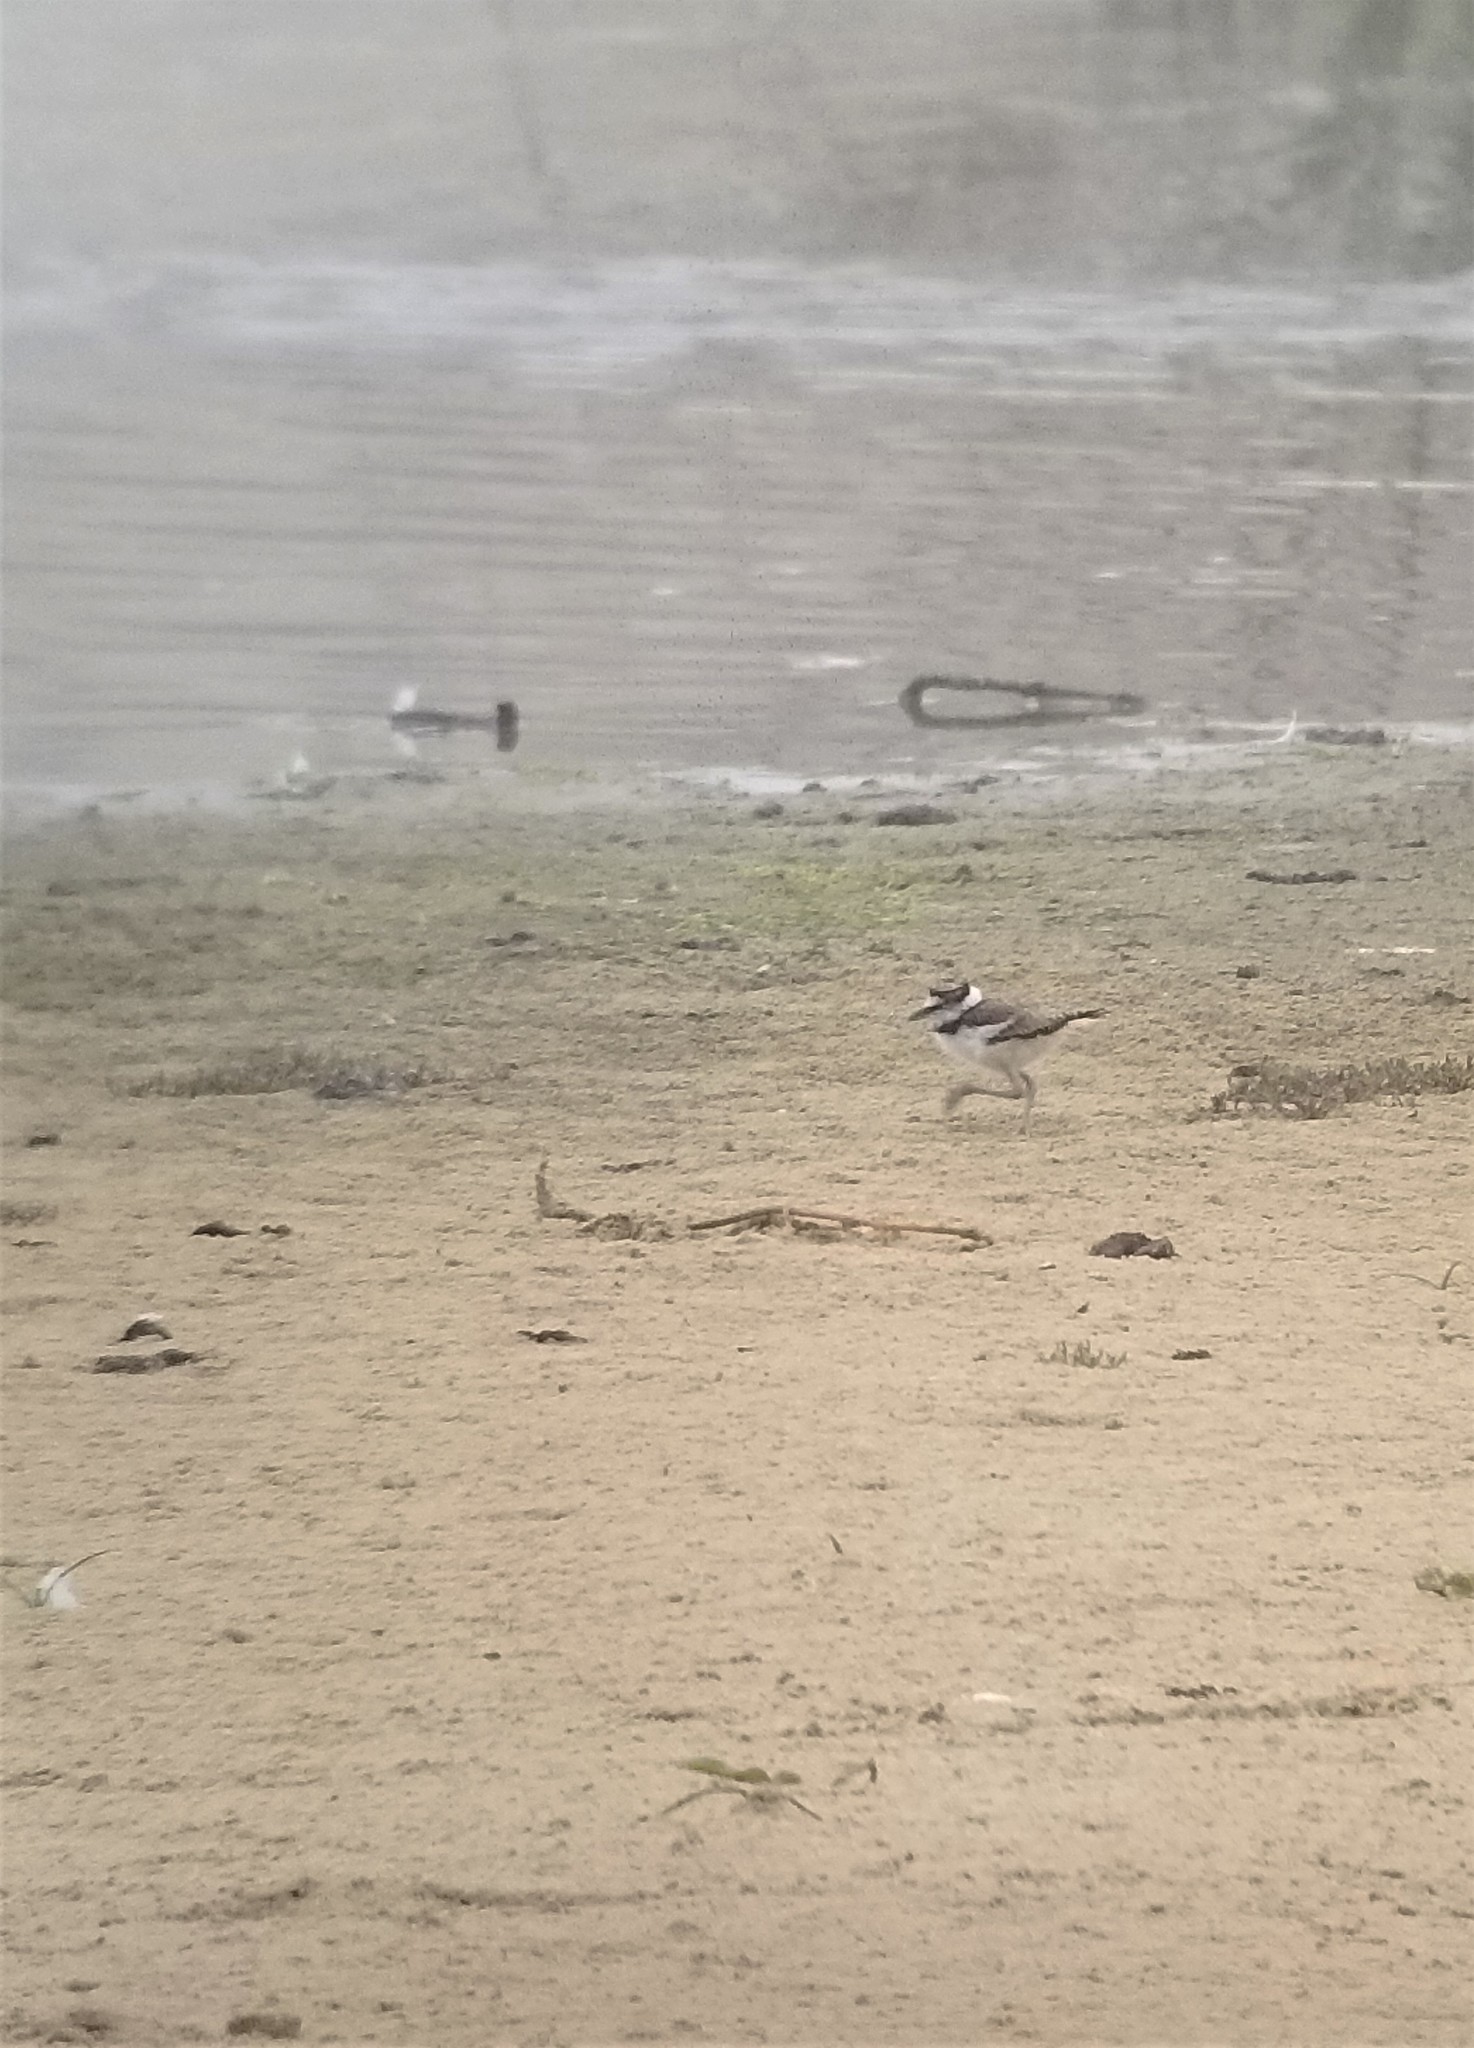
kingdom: Animalia
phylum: Chordata
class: Aves
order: Charadriiformes
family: Charadriidae
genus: Charadrius
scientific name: Charadrius vociferus
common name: Killdeer
